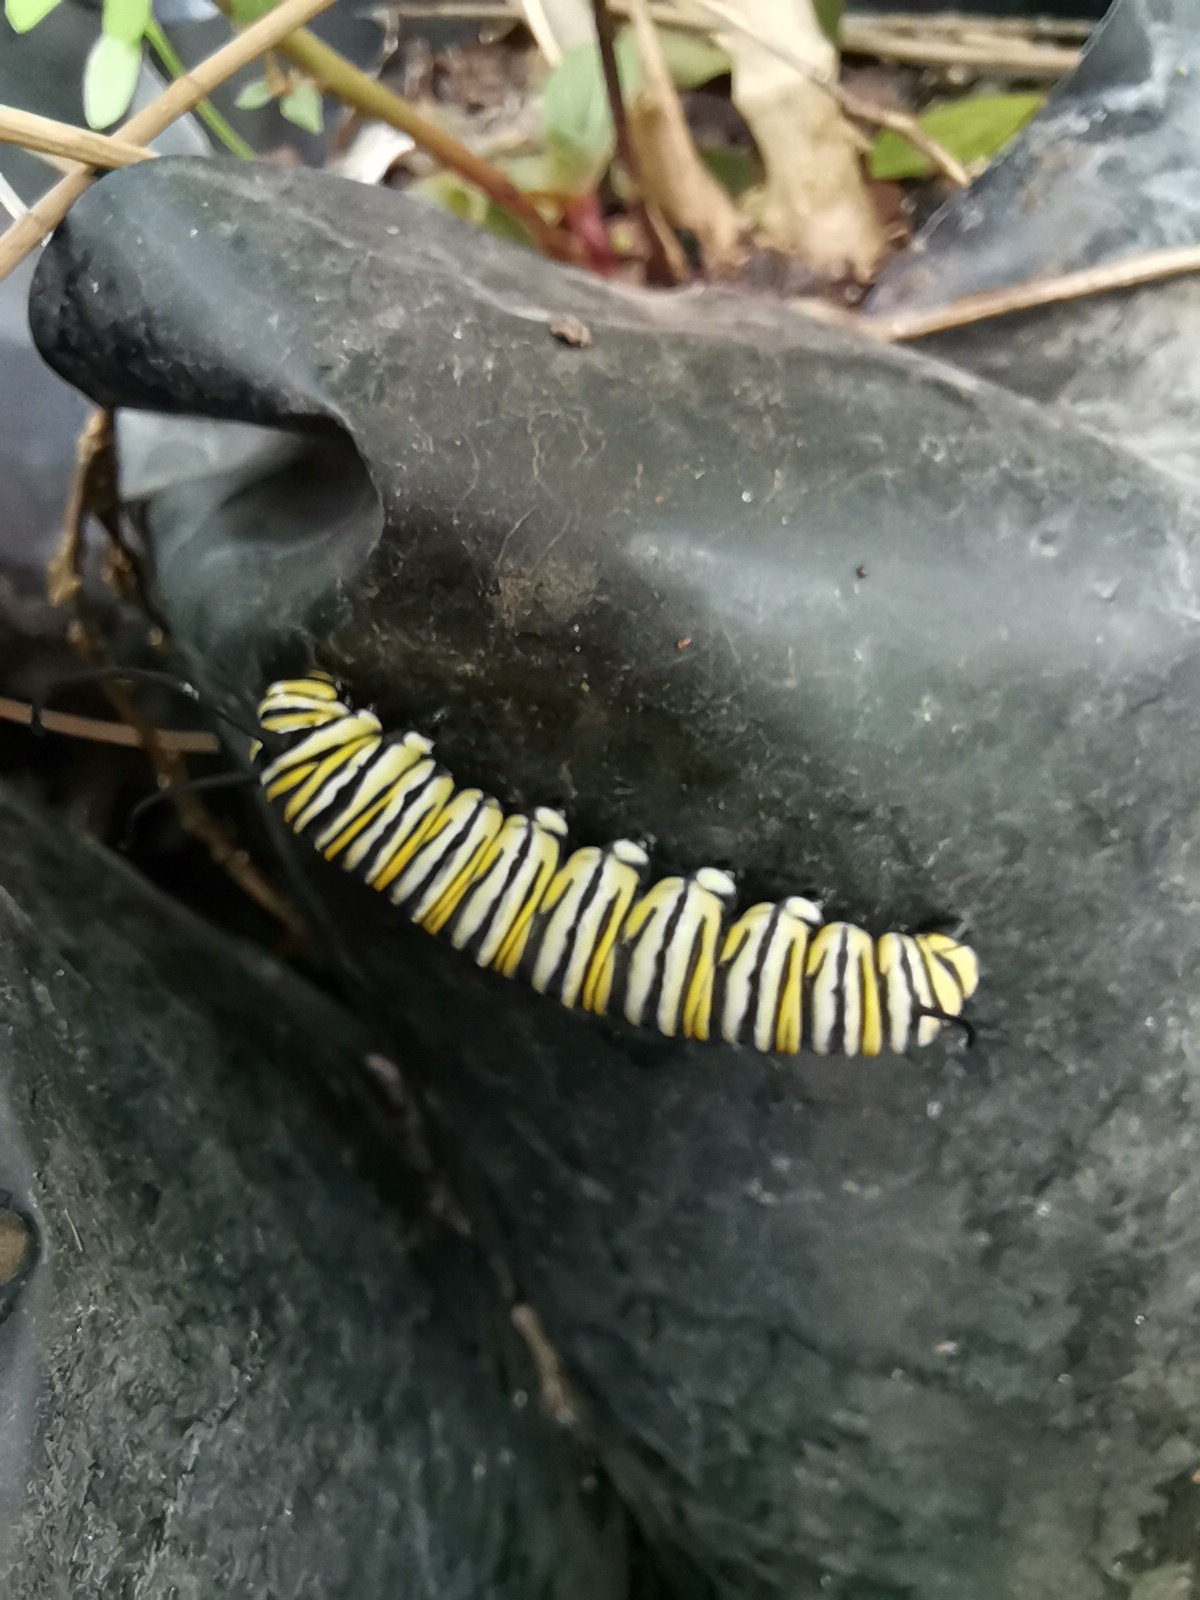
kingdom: Animalia
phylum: Arthropoda
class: Insecta
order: Lepidoptera
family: Nymphalidae
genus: Danaus
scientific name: Danaus plexippus
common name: Monarch
